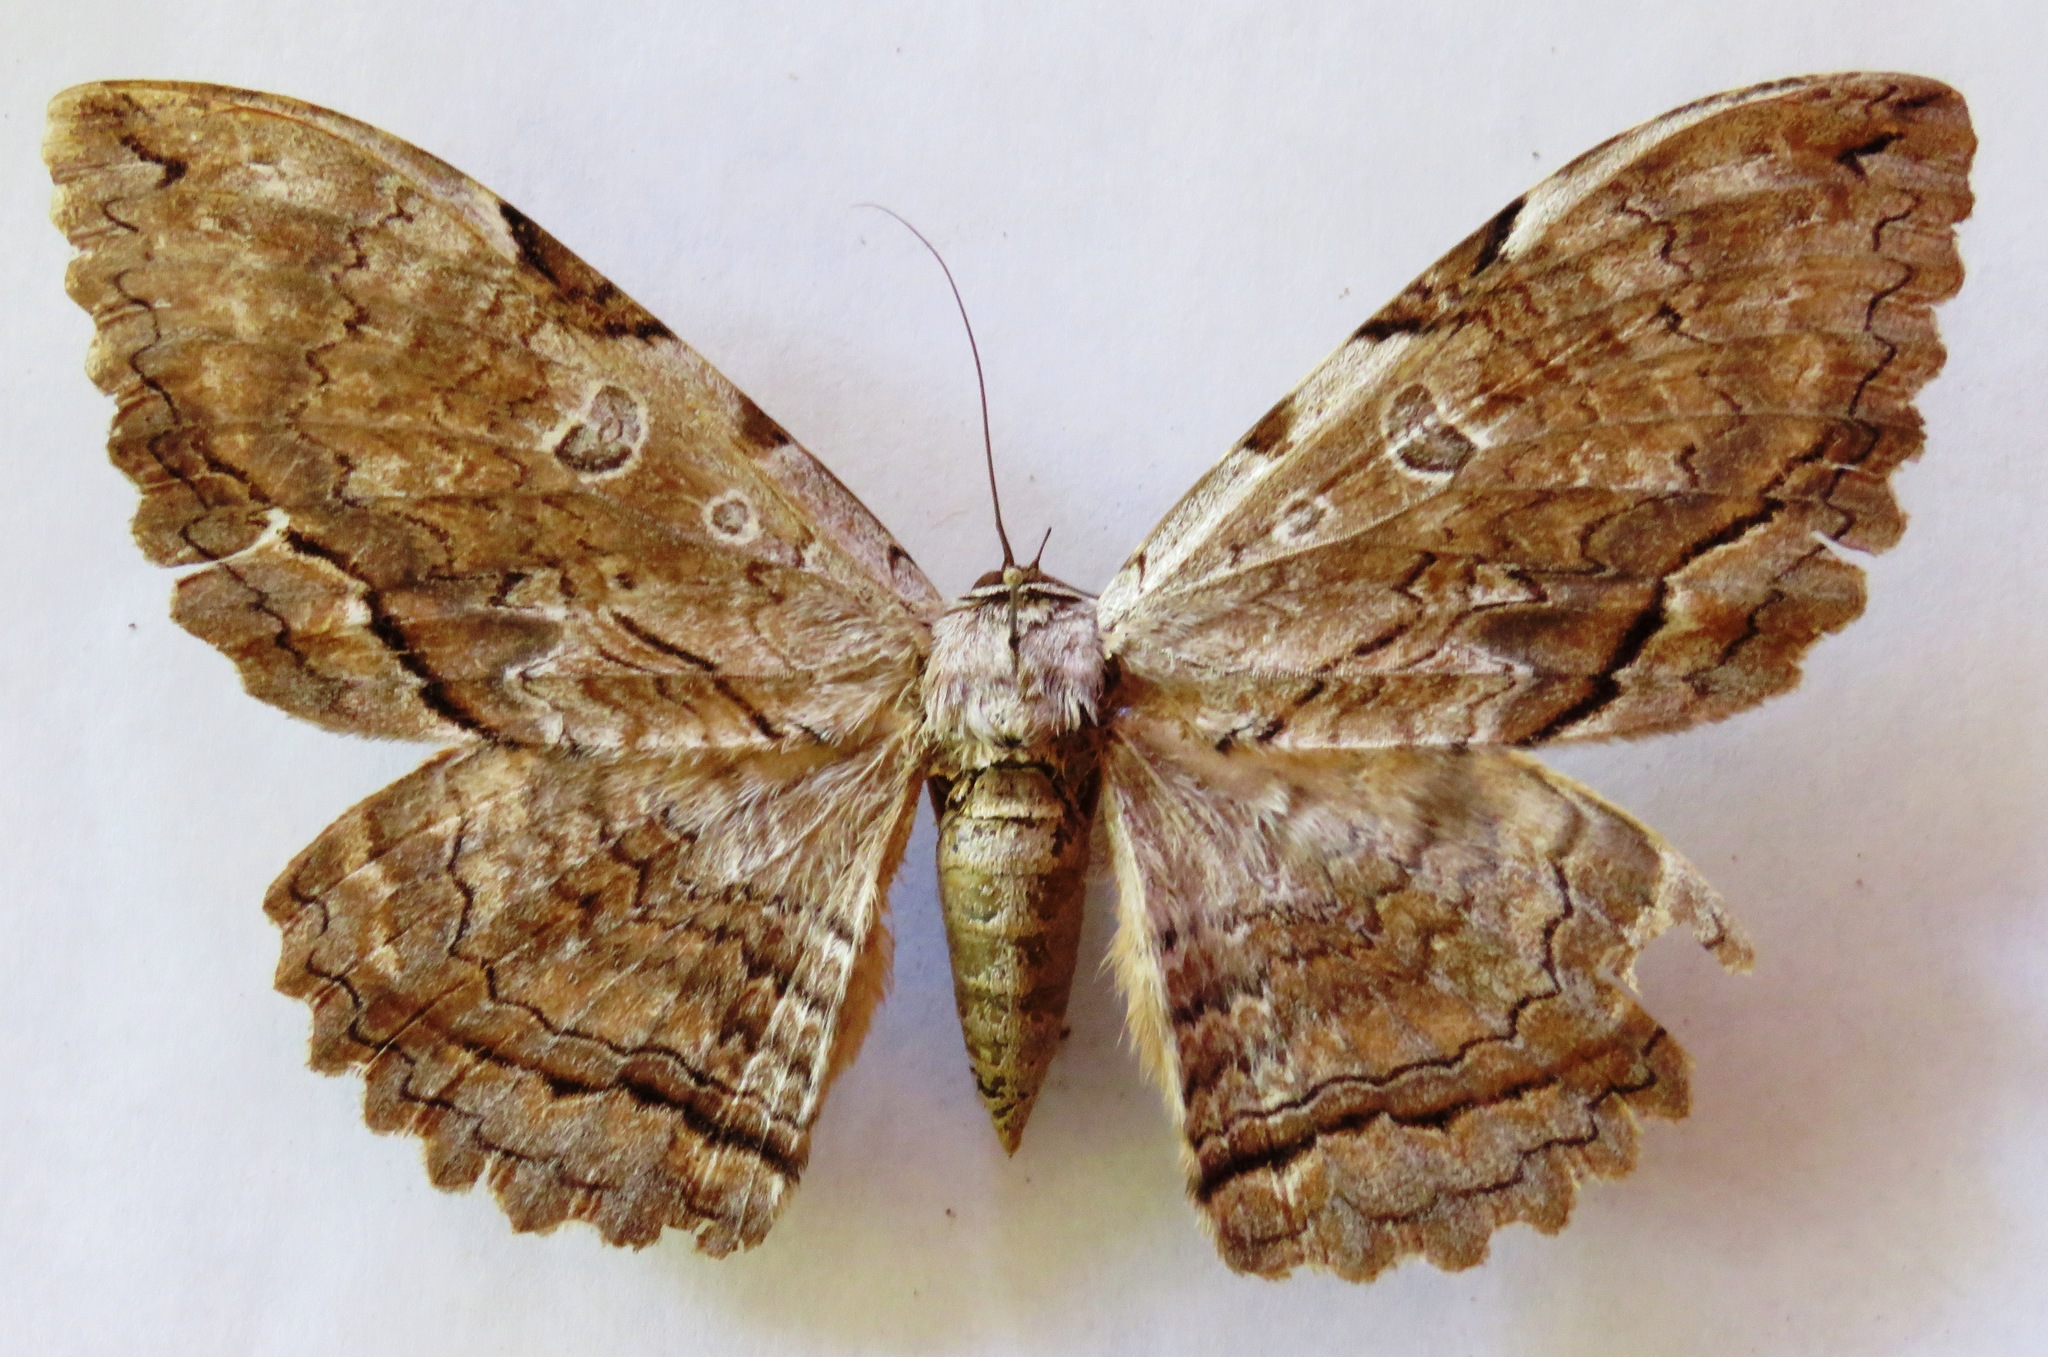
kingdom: Animalia
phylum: Arthropoda
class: Insecta
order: Lepidoptera
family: Erebidae
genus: Thysania
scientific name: Thysania zenobia
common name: Owl moth
